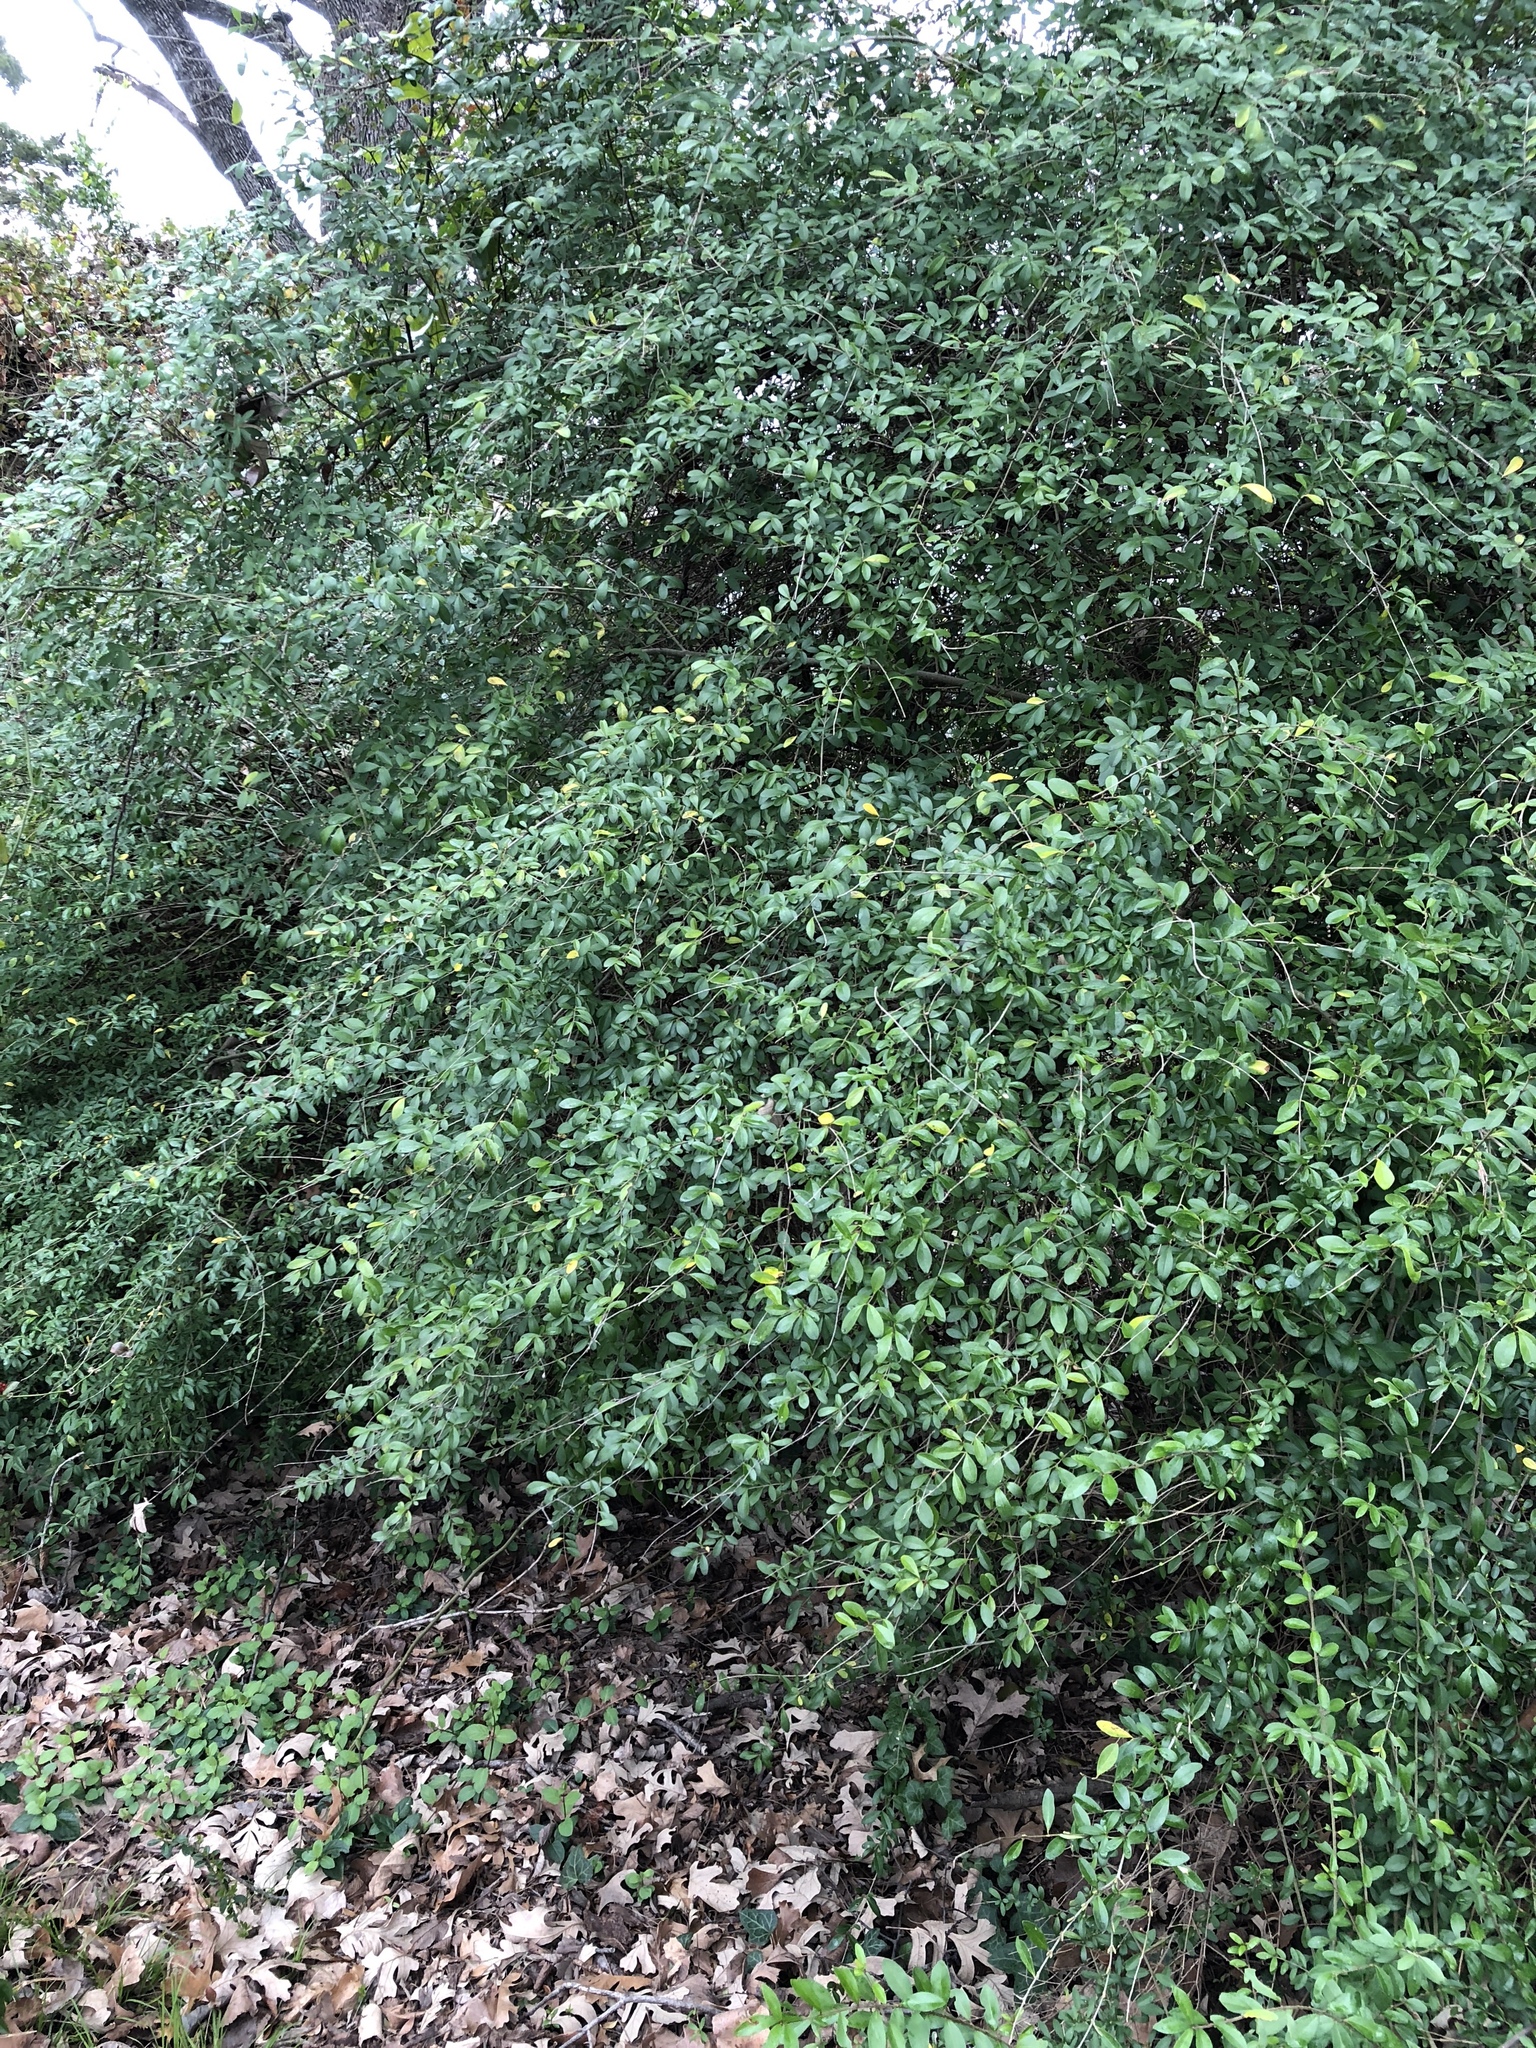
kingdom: Plantae
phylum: Tracheophyta
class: Magnoliopsida
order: Lamiales
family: Oleaceae
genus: Ligustrum
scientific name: Ligustrum quihoui
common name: Waxyleaf privet
